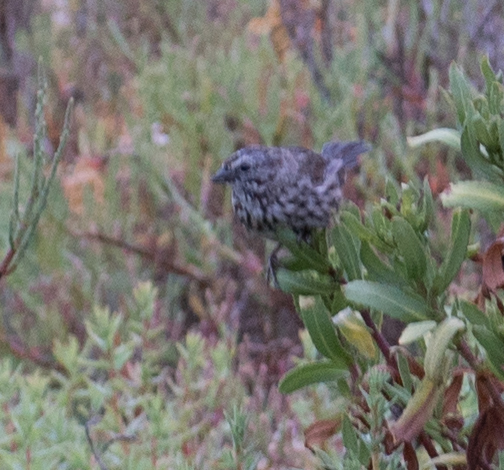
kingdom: Animalia
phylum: Chordata
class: Aves
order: Passeriformes
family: Passerellidae
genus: Melospiza
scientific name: Melospiza melodia
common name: Song sparrow
